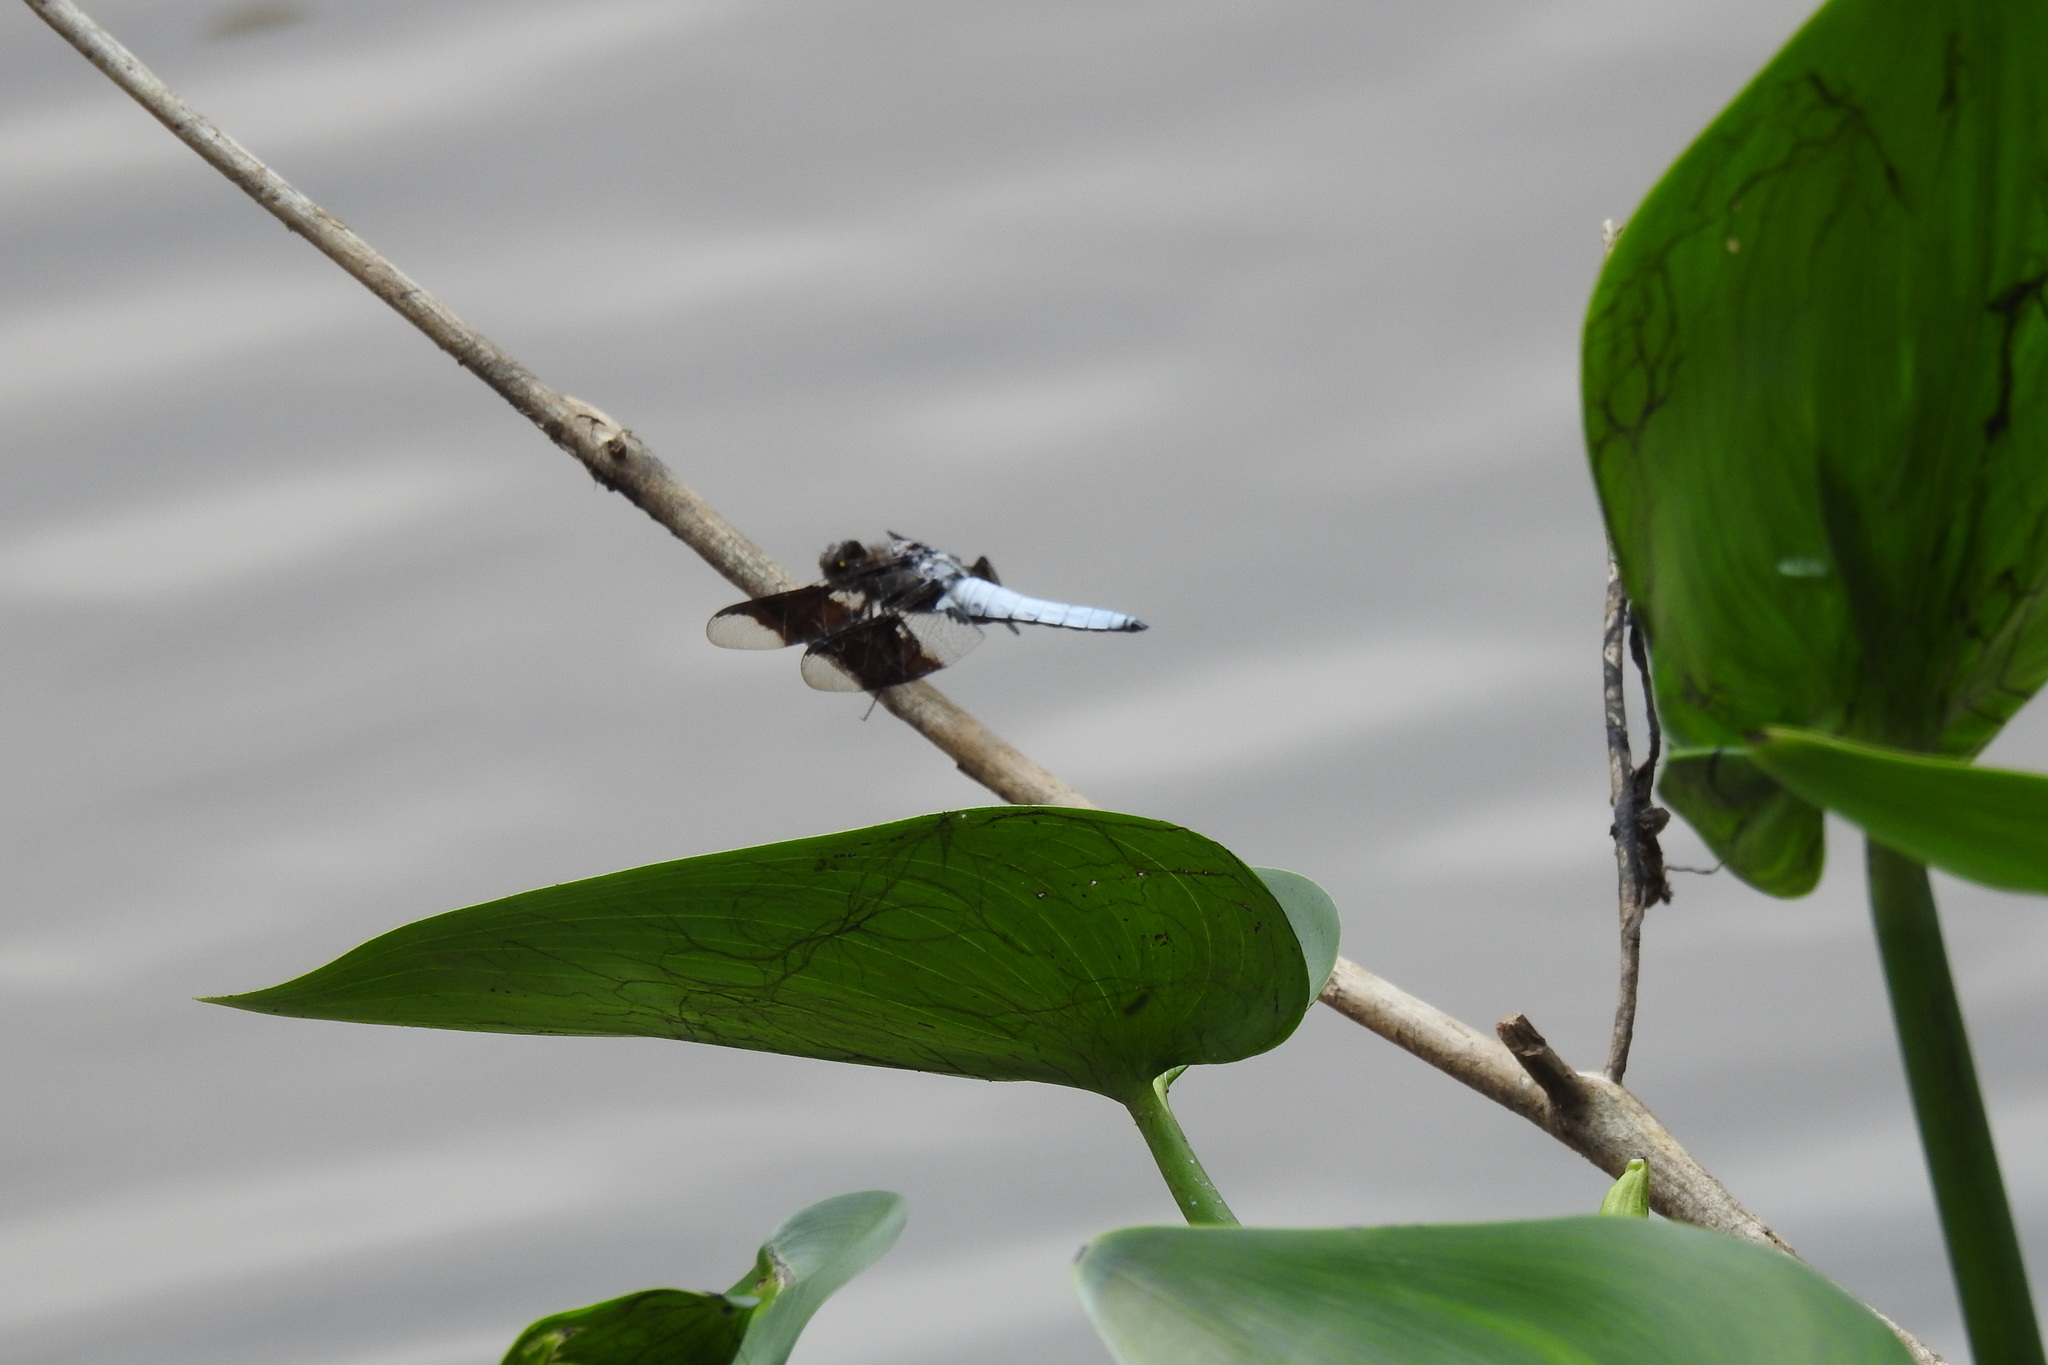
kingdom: Animalia
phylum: Arthropoda
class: Insecta
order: Odonata
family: Libellulidae
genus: Plathemis
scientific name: Plathemis lydia
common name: Common whitetail
